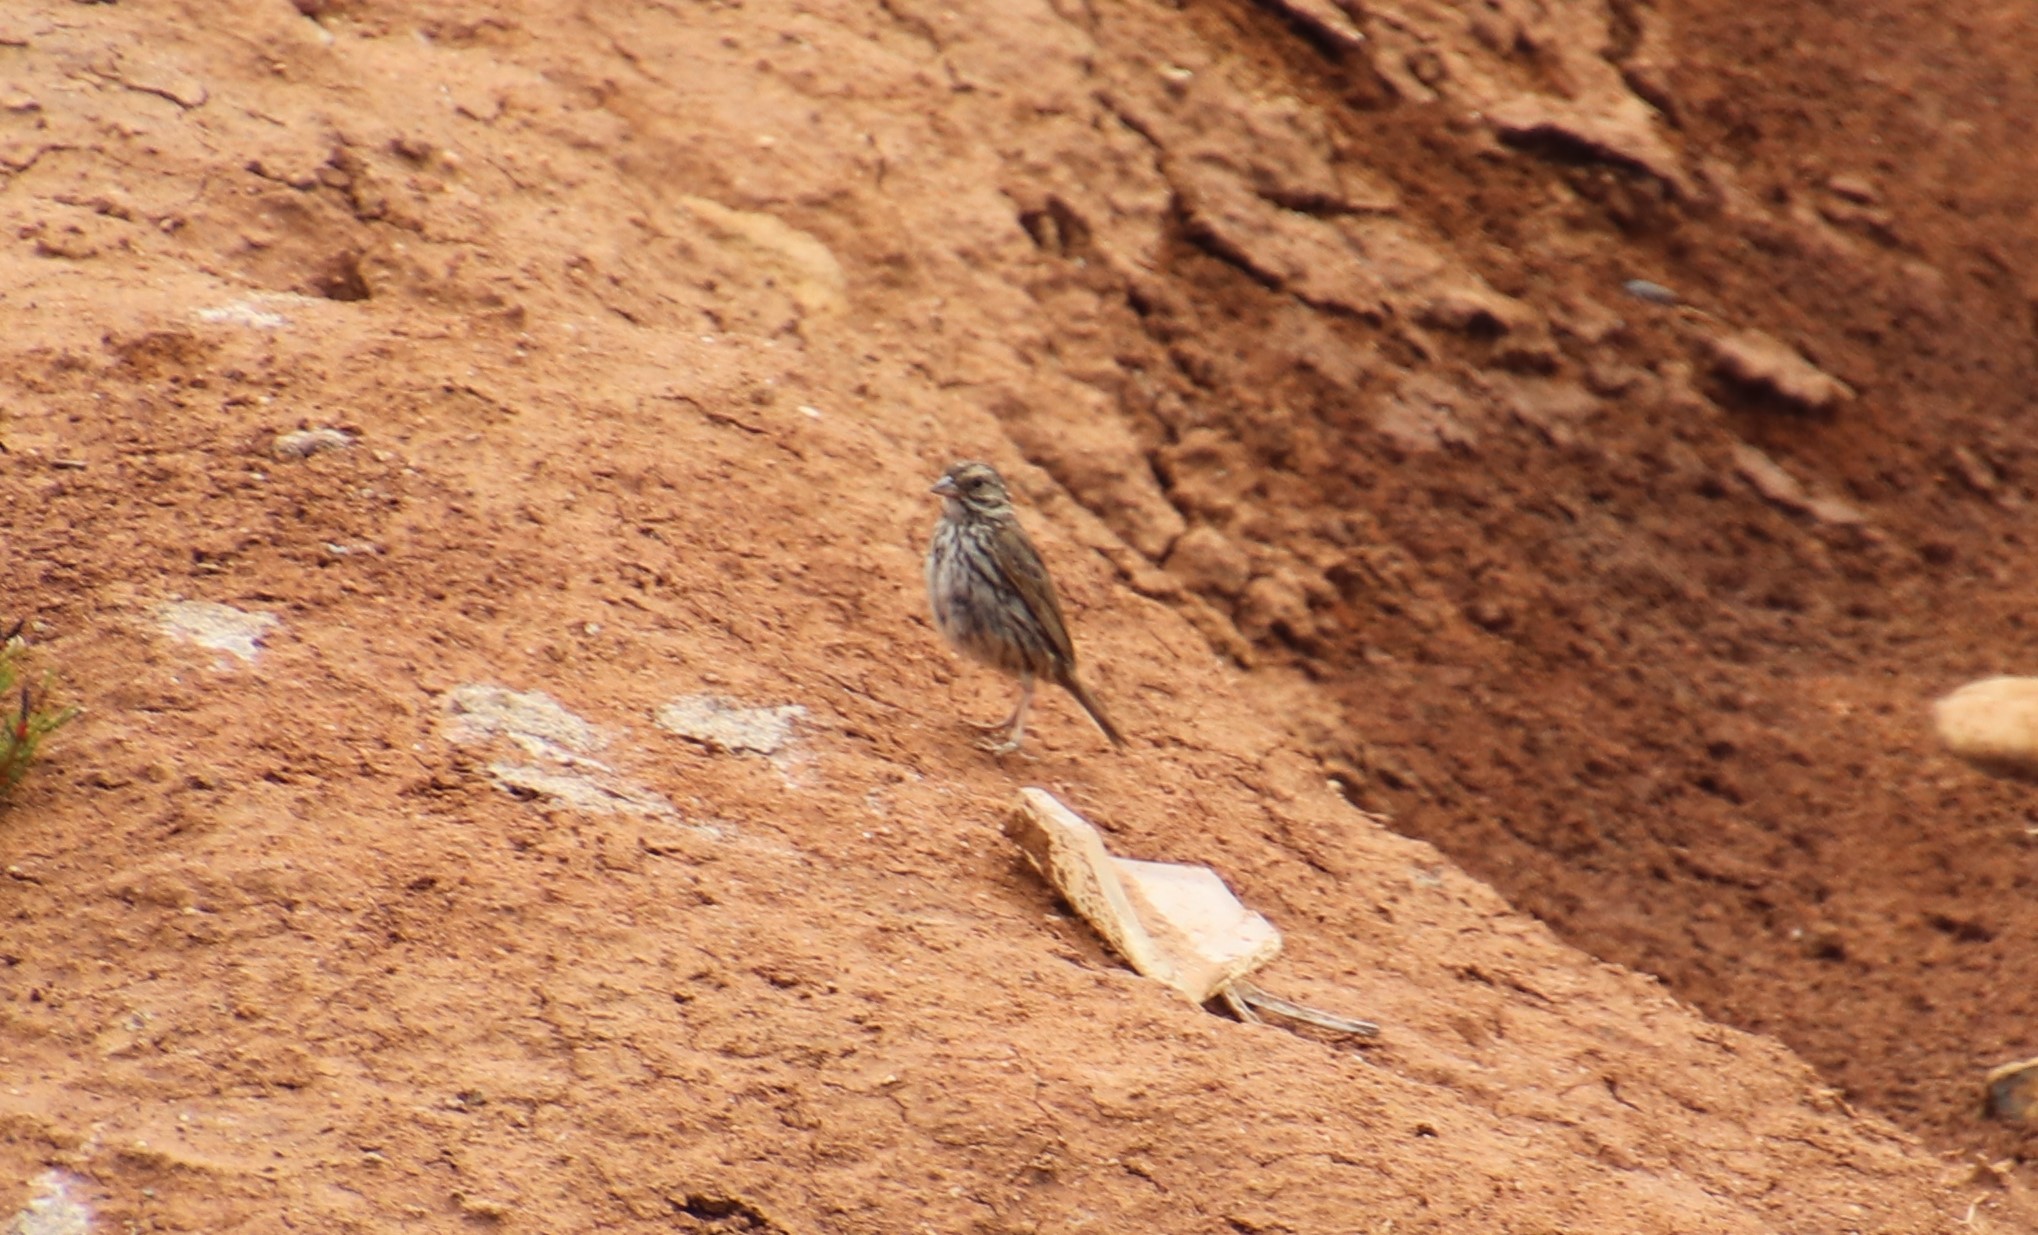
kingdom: Animalia
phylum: Chordata
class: Aves
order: Passeriformes
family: Passerellidae
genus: Passerculus
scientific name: Passerculus sandwichensis
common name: Savannah sparrow
